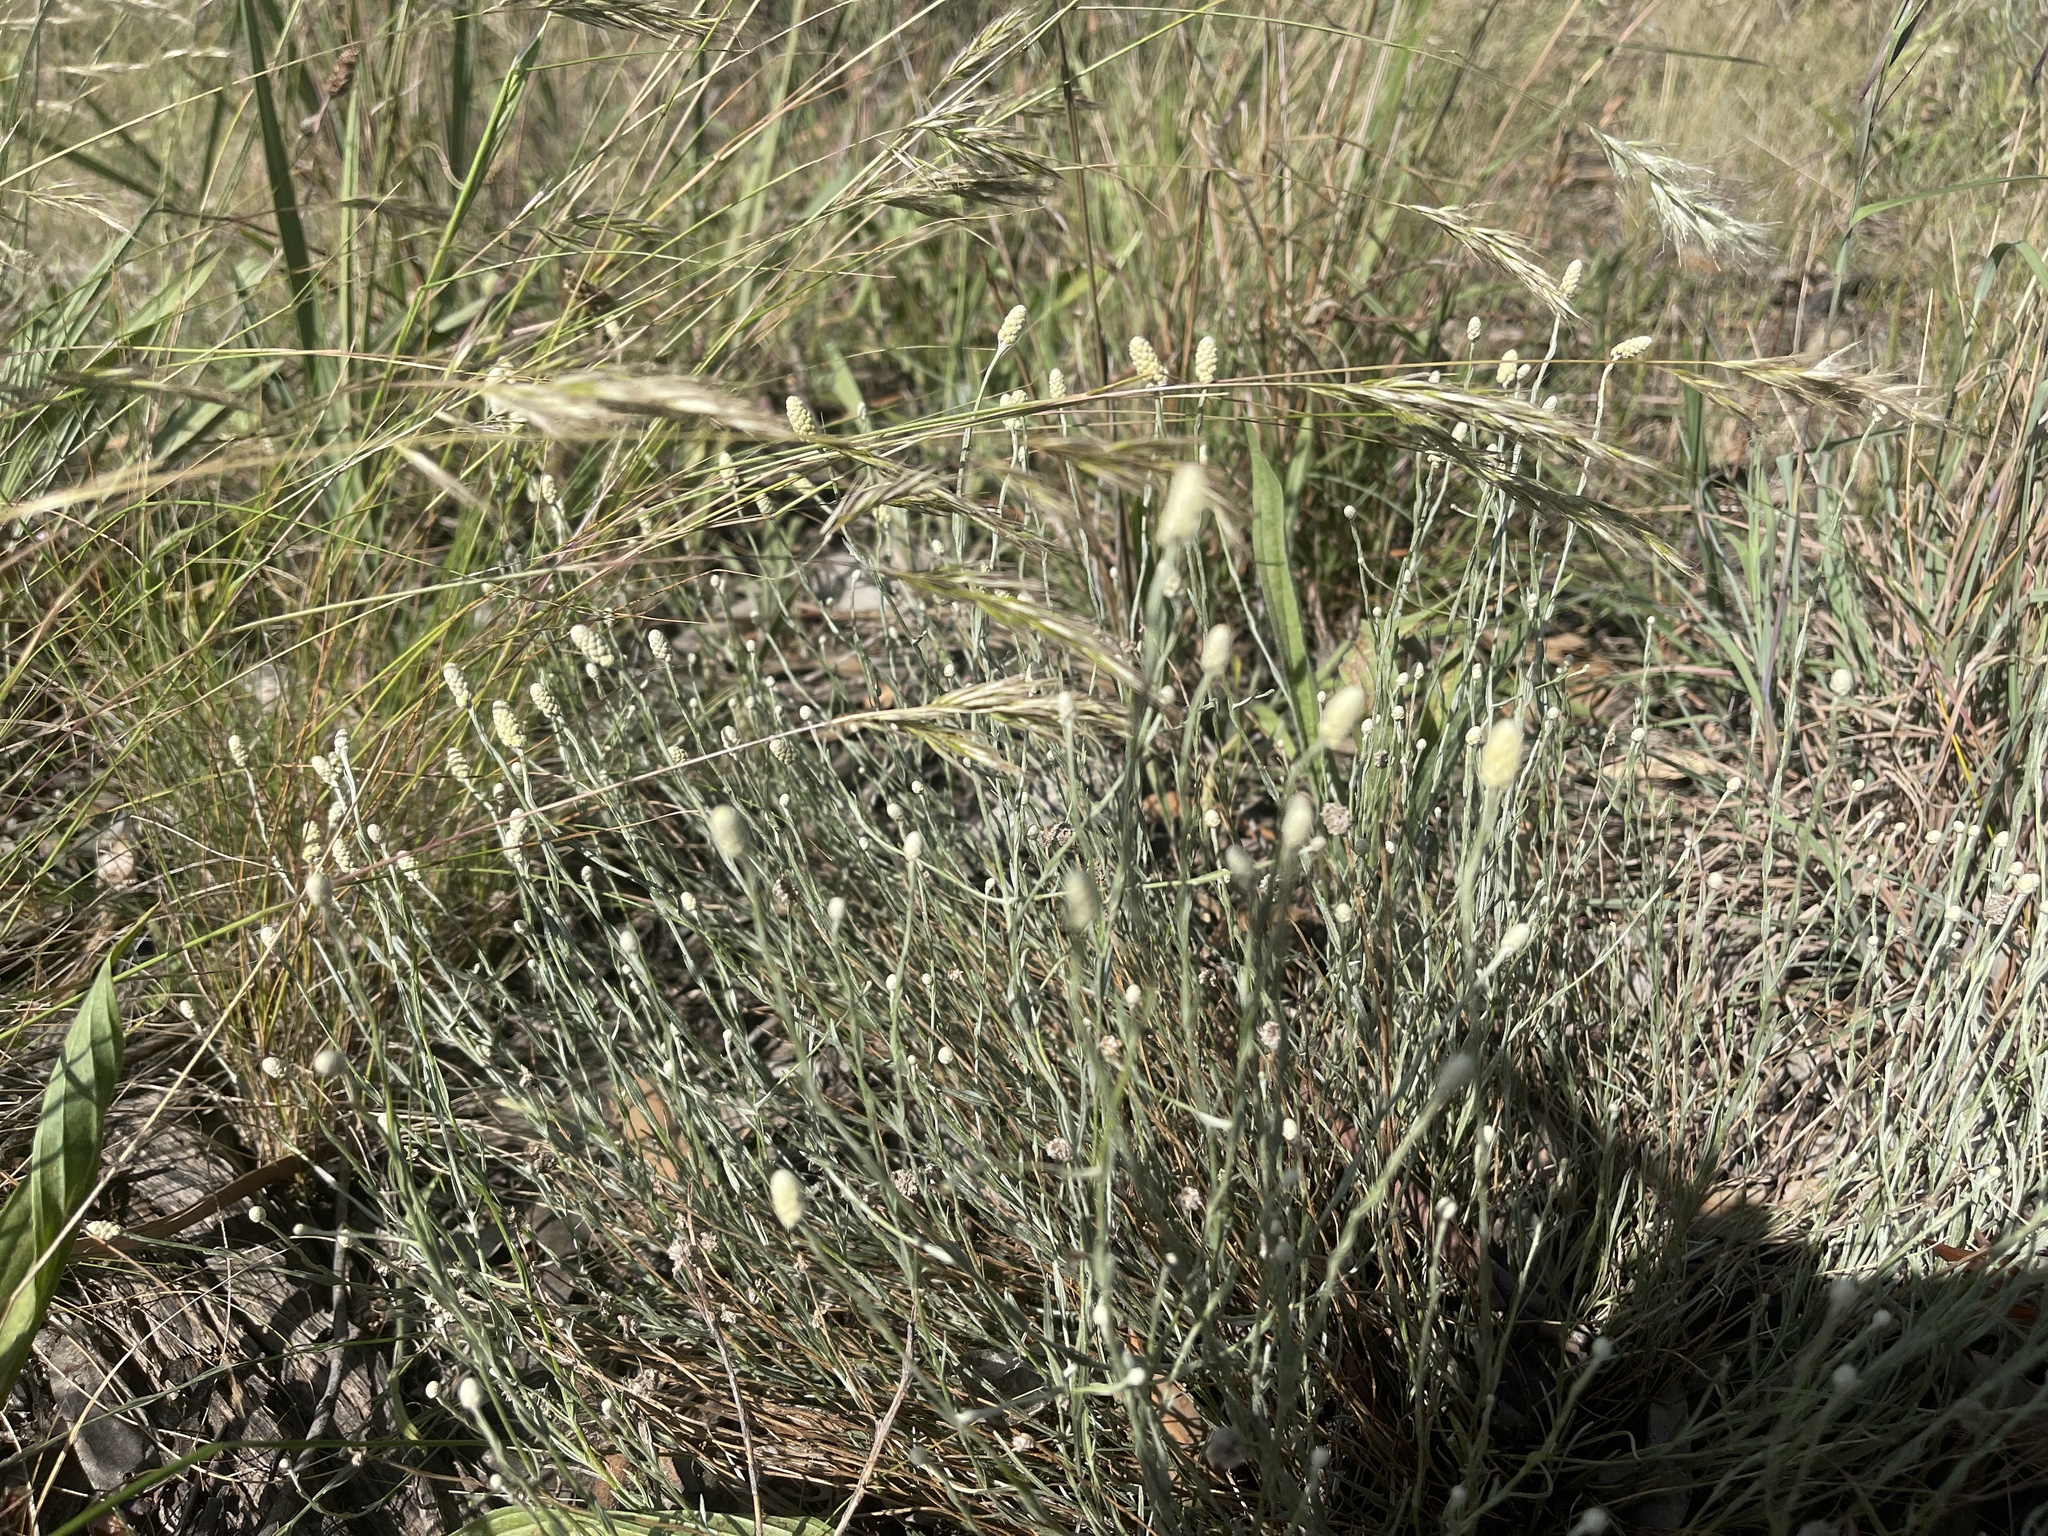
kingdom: Plantae
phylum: Tracheophyta
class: Magnoliopsida
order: Asterales
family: Asteraceae
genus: Calocephalus
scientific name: Calocephalus citreus
